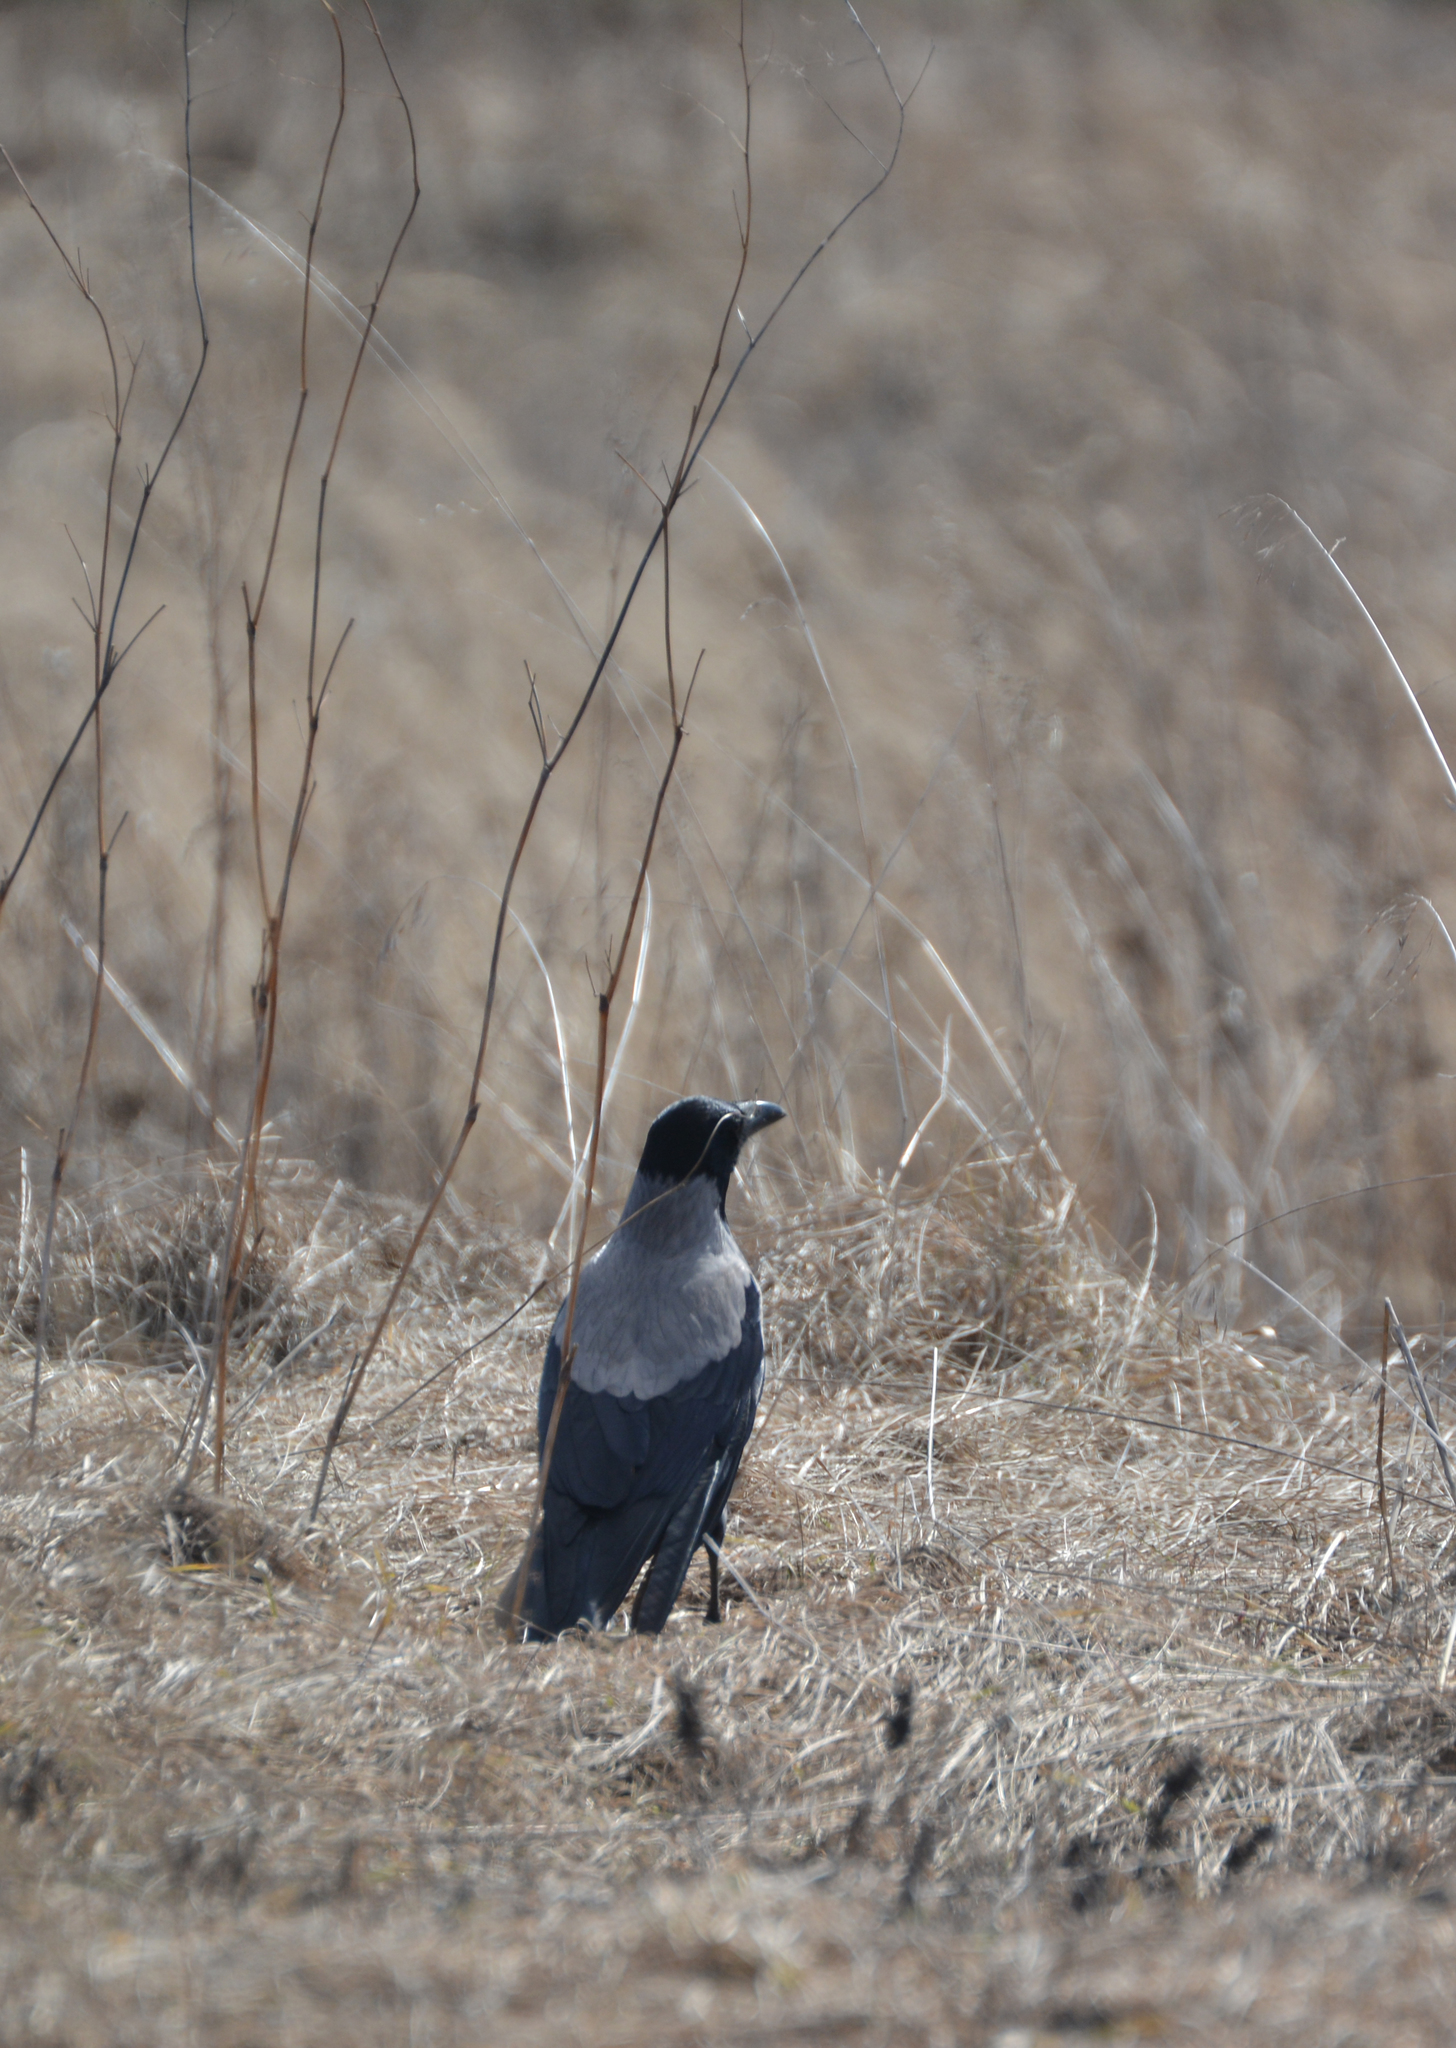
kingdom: Animalia
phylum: Chordata
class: Aves
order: Passeriformes
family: Corvidae
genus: Corvus
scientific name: Corvus cornix
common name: Hooded crow
